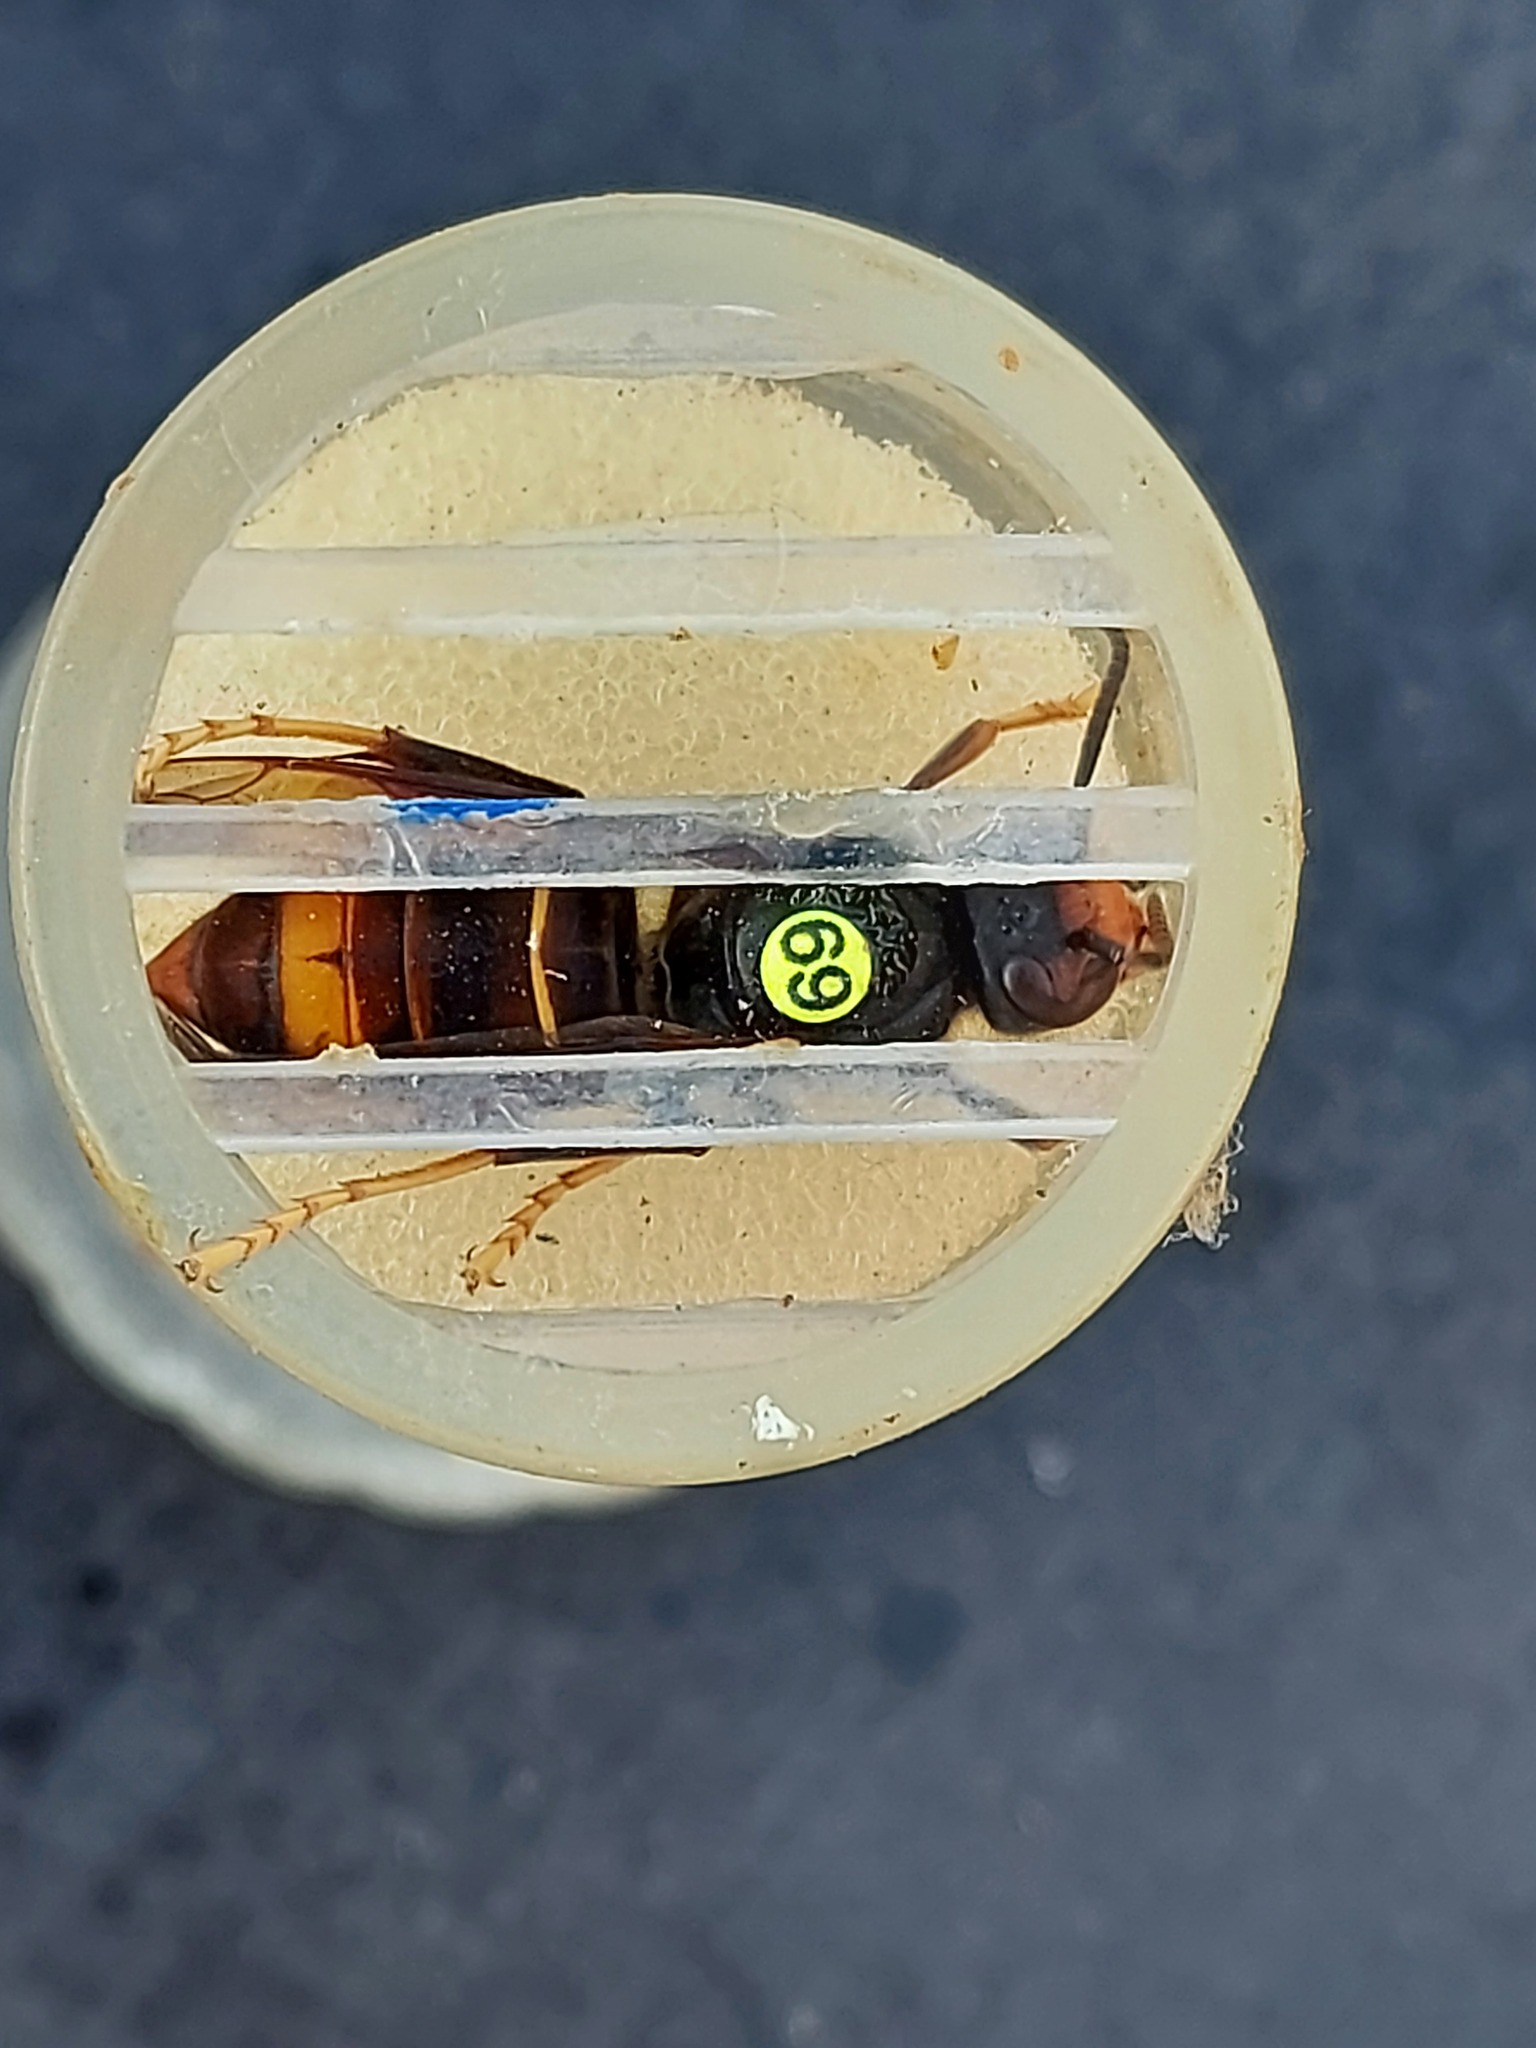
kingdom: Animalia
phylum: Arthropoda
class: Insecta
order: Hymenoptera
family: Vespidae
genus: Vespa
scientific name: Vespa velutina
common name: Asian hornet
